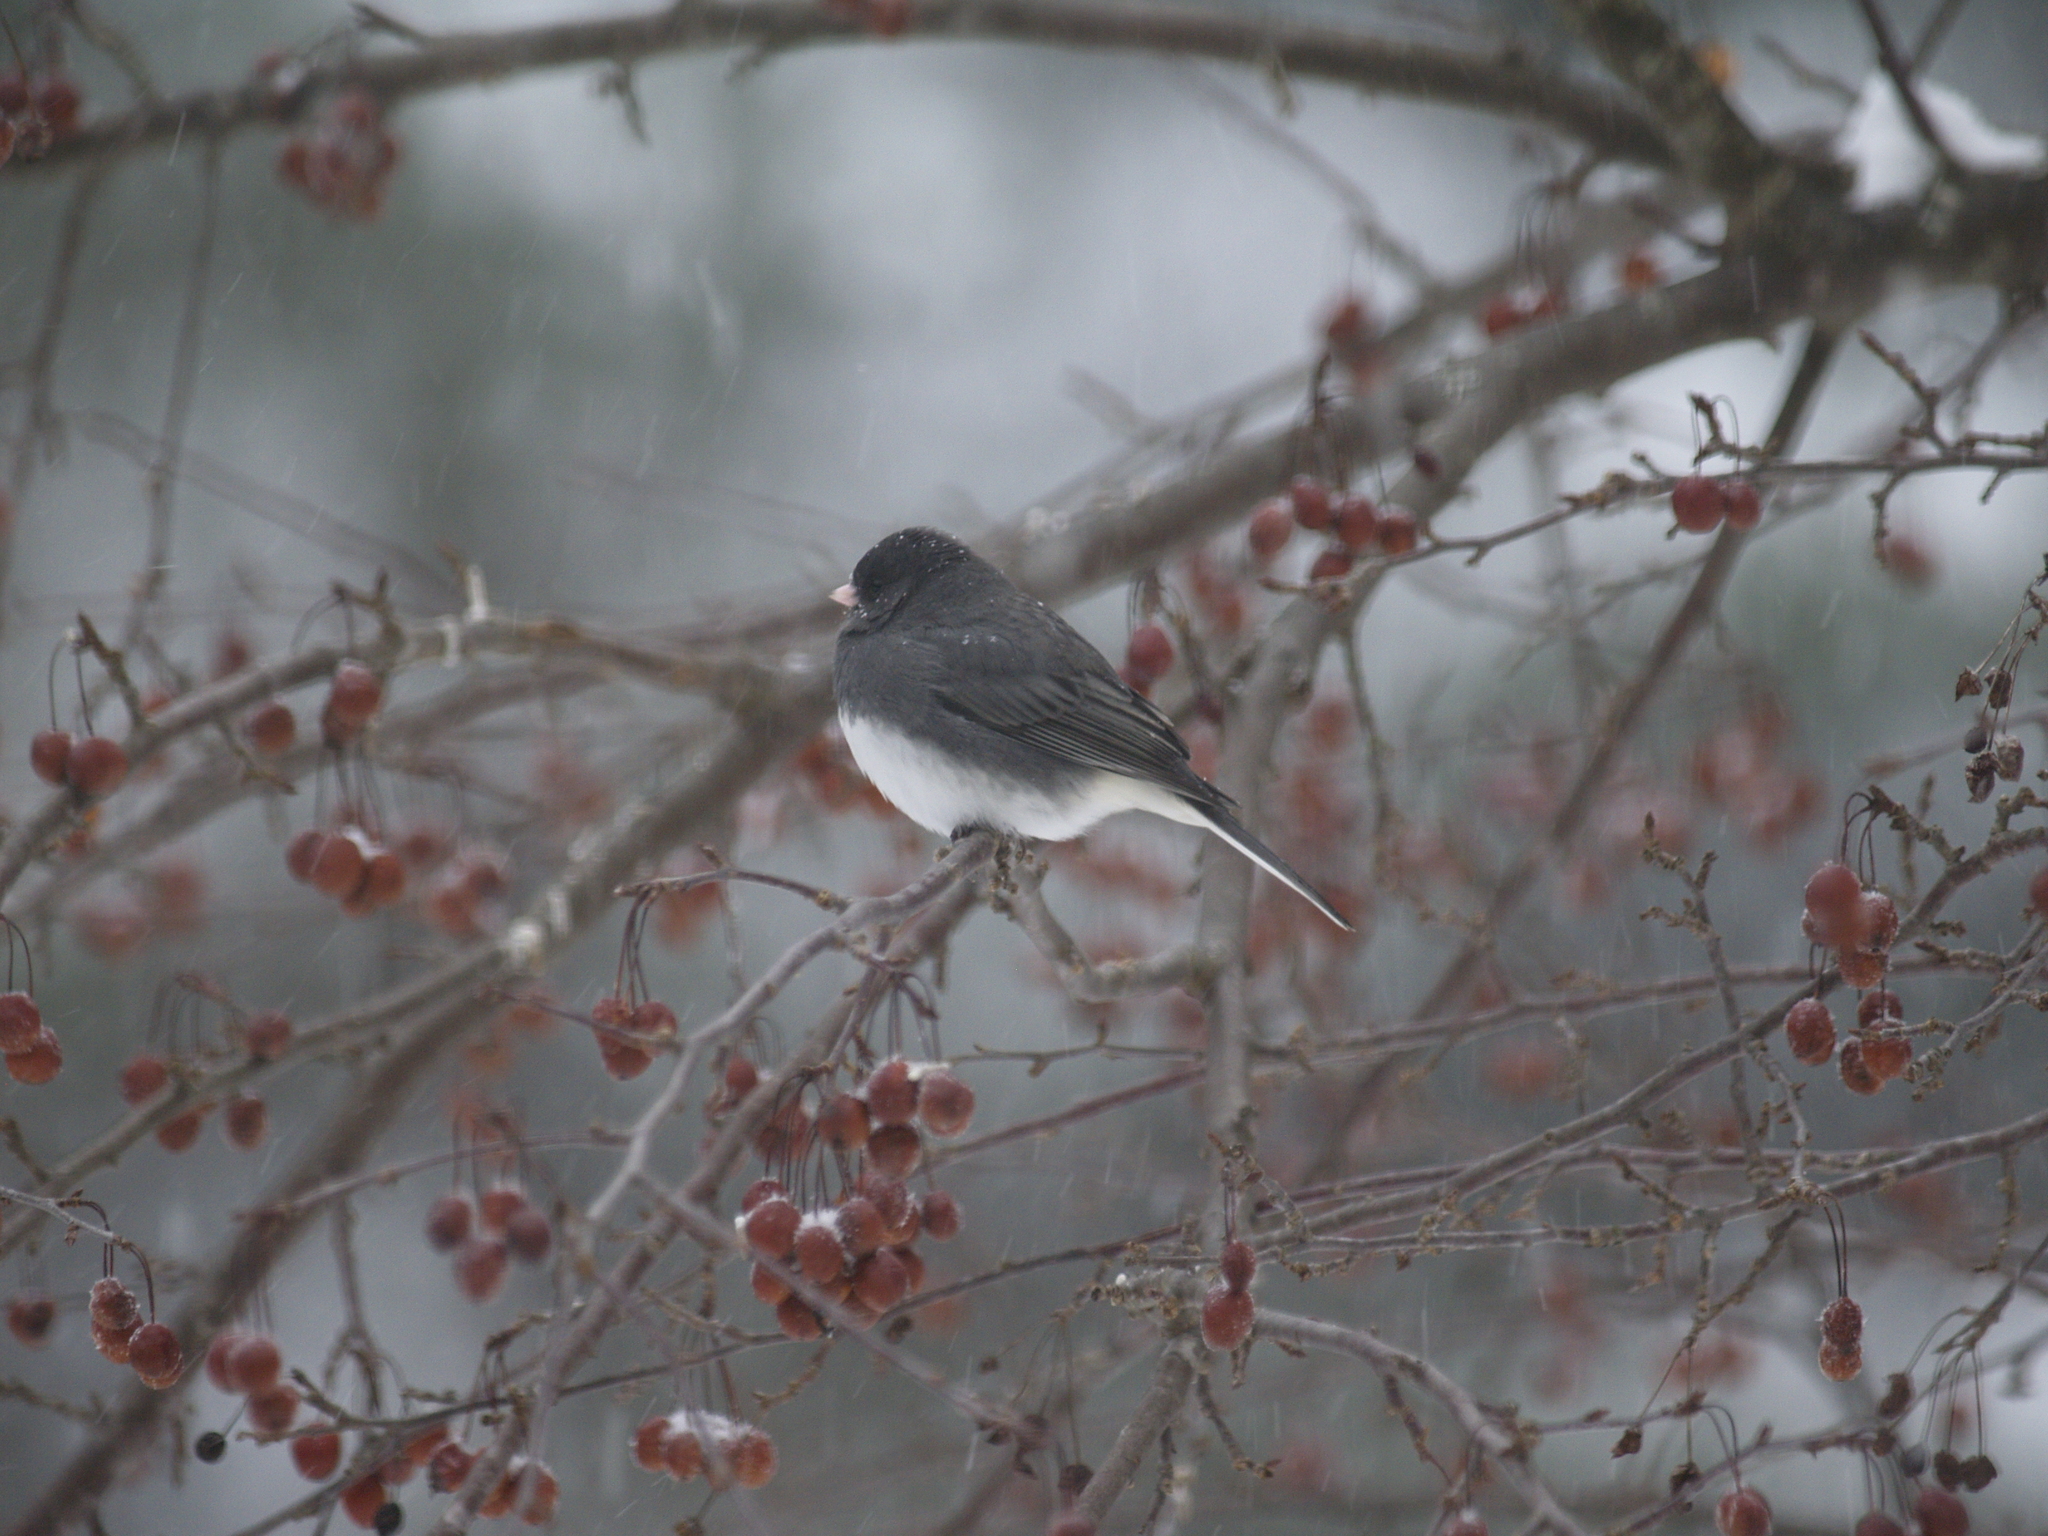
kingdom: Animalia
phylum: Chordata
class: Aves
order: Passeriformes
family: Passerellidae
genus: Junco
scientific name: Junco hyemalis
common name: Dark-eyed junco
